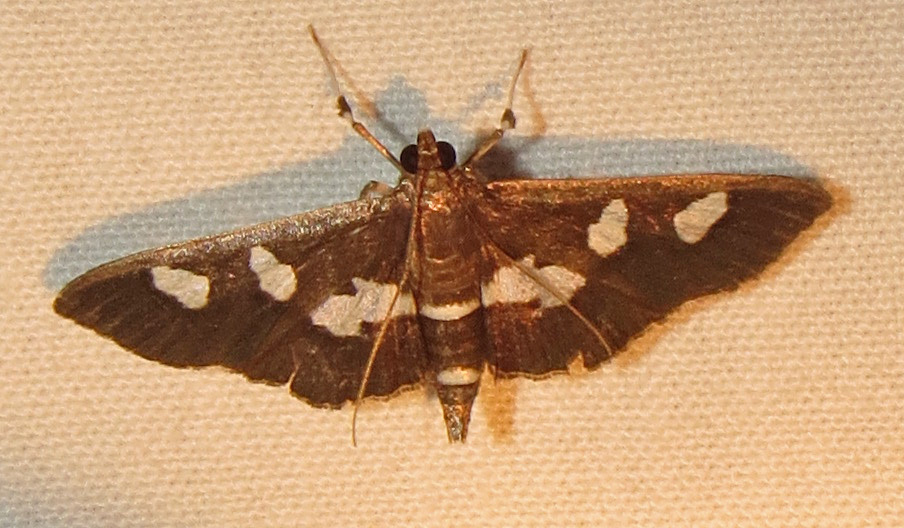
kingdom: Animalia
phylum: Arthropoda
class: Insecta
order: Lepidoptera
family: Crambidae
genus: Desmia
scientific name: Desmia funeralis
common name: Grape leaf folder moth
